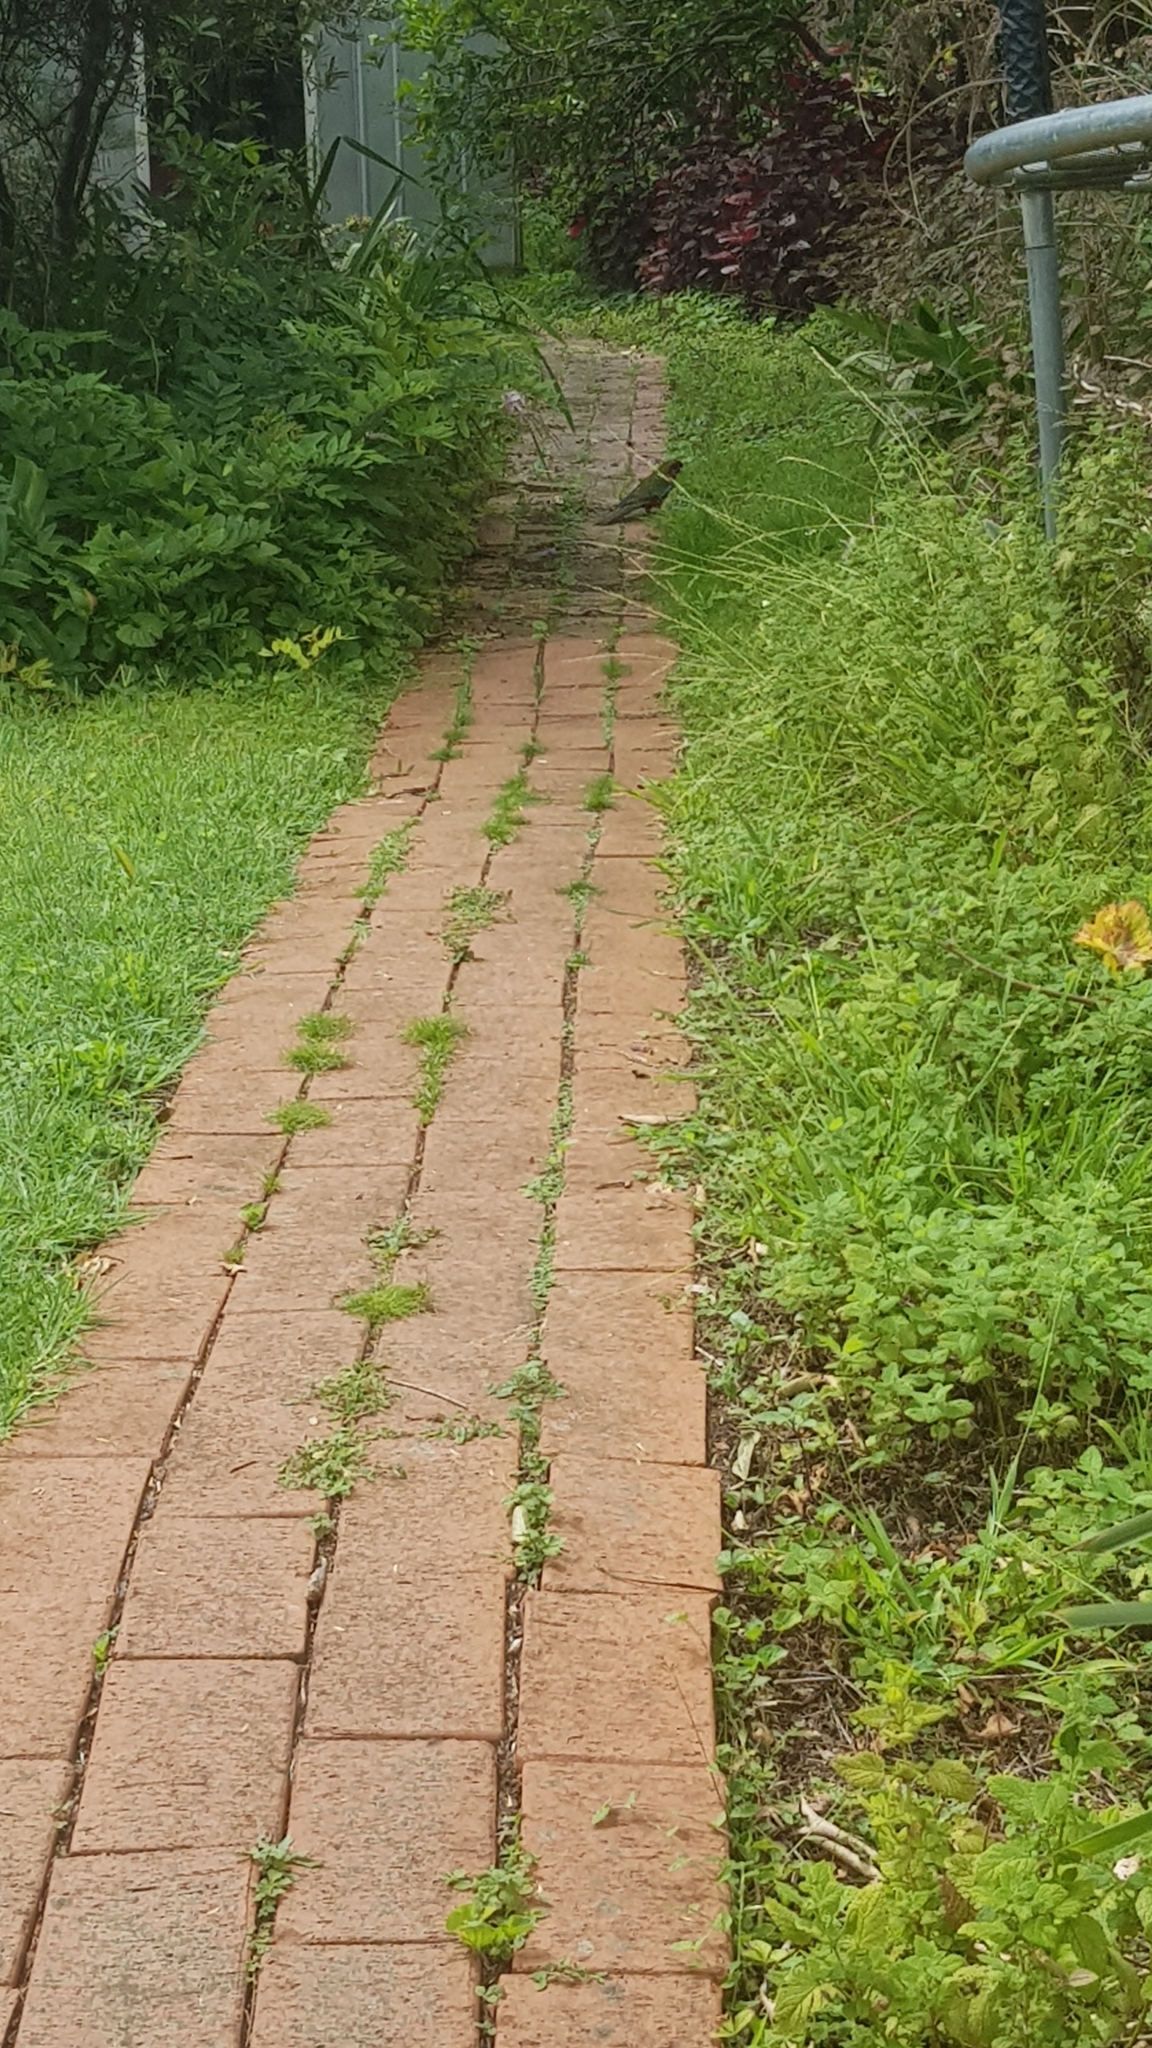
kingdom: Animalia
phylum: Chordata
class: Aves
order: Psittaciformes
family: Psittacidae
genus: Platycercus
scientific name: Platycercus elegans
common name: Crimson rosella
